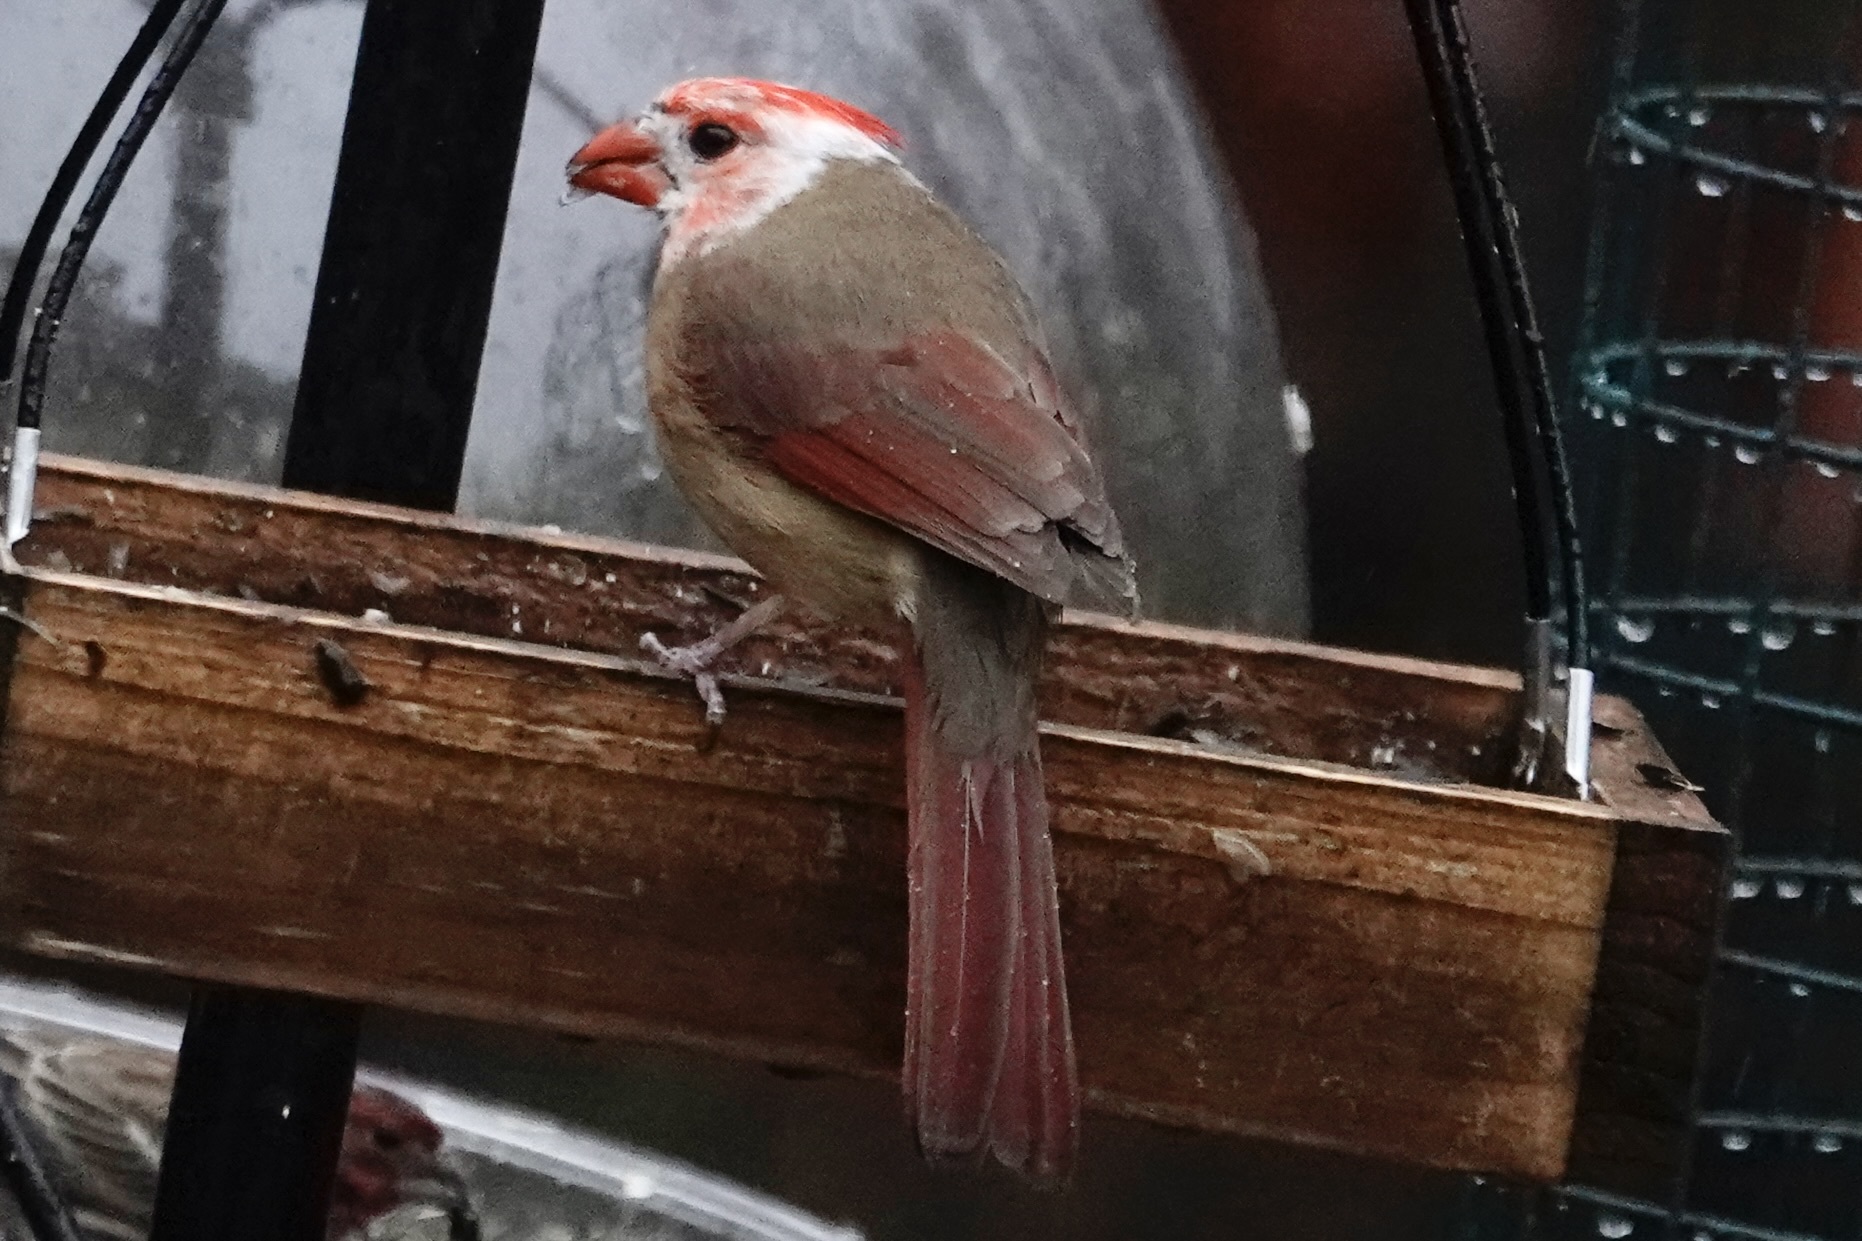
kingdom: Animalia
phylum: Chordata
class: Aves
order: Passeriformes
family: Cardinalidae
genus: Cardinalis
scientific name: Cardinalis cardinalis
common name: Northern cardinal
